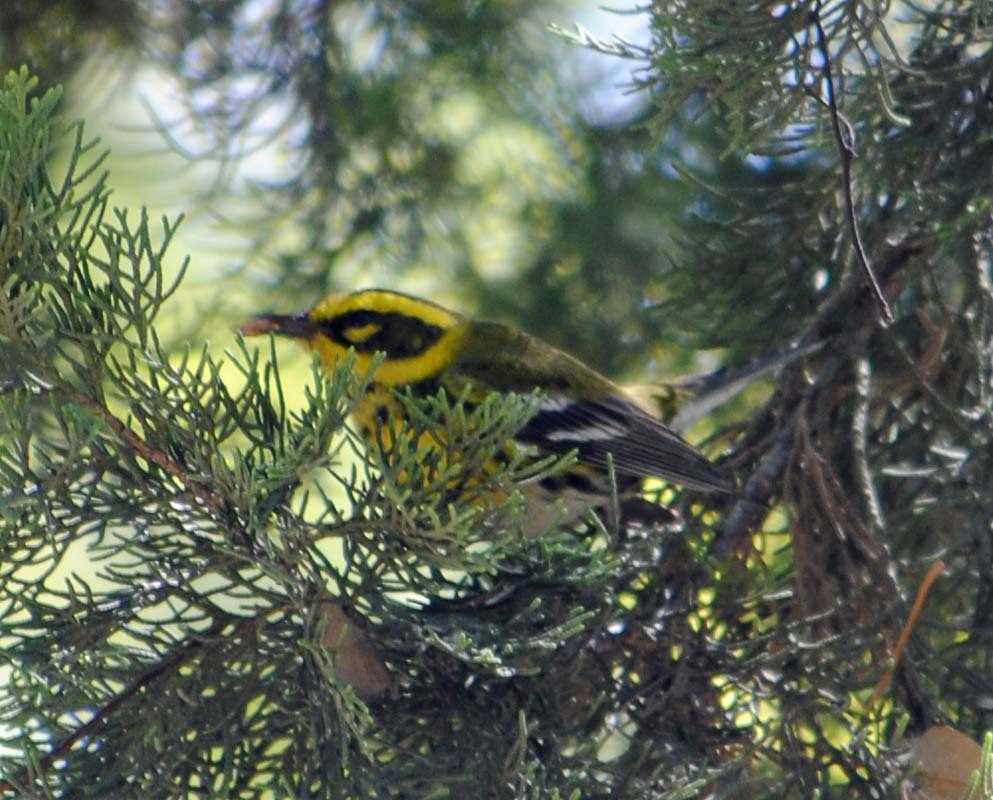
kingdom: Animalia
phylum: Chordata
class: Aves
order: Passeriformes
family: Parulidae
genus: Setophaga
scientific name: Setophaga townsendi
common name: Townsend's warbler
